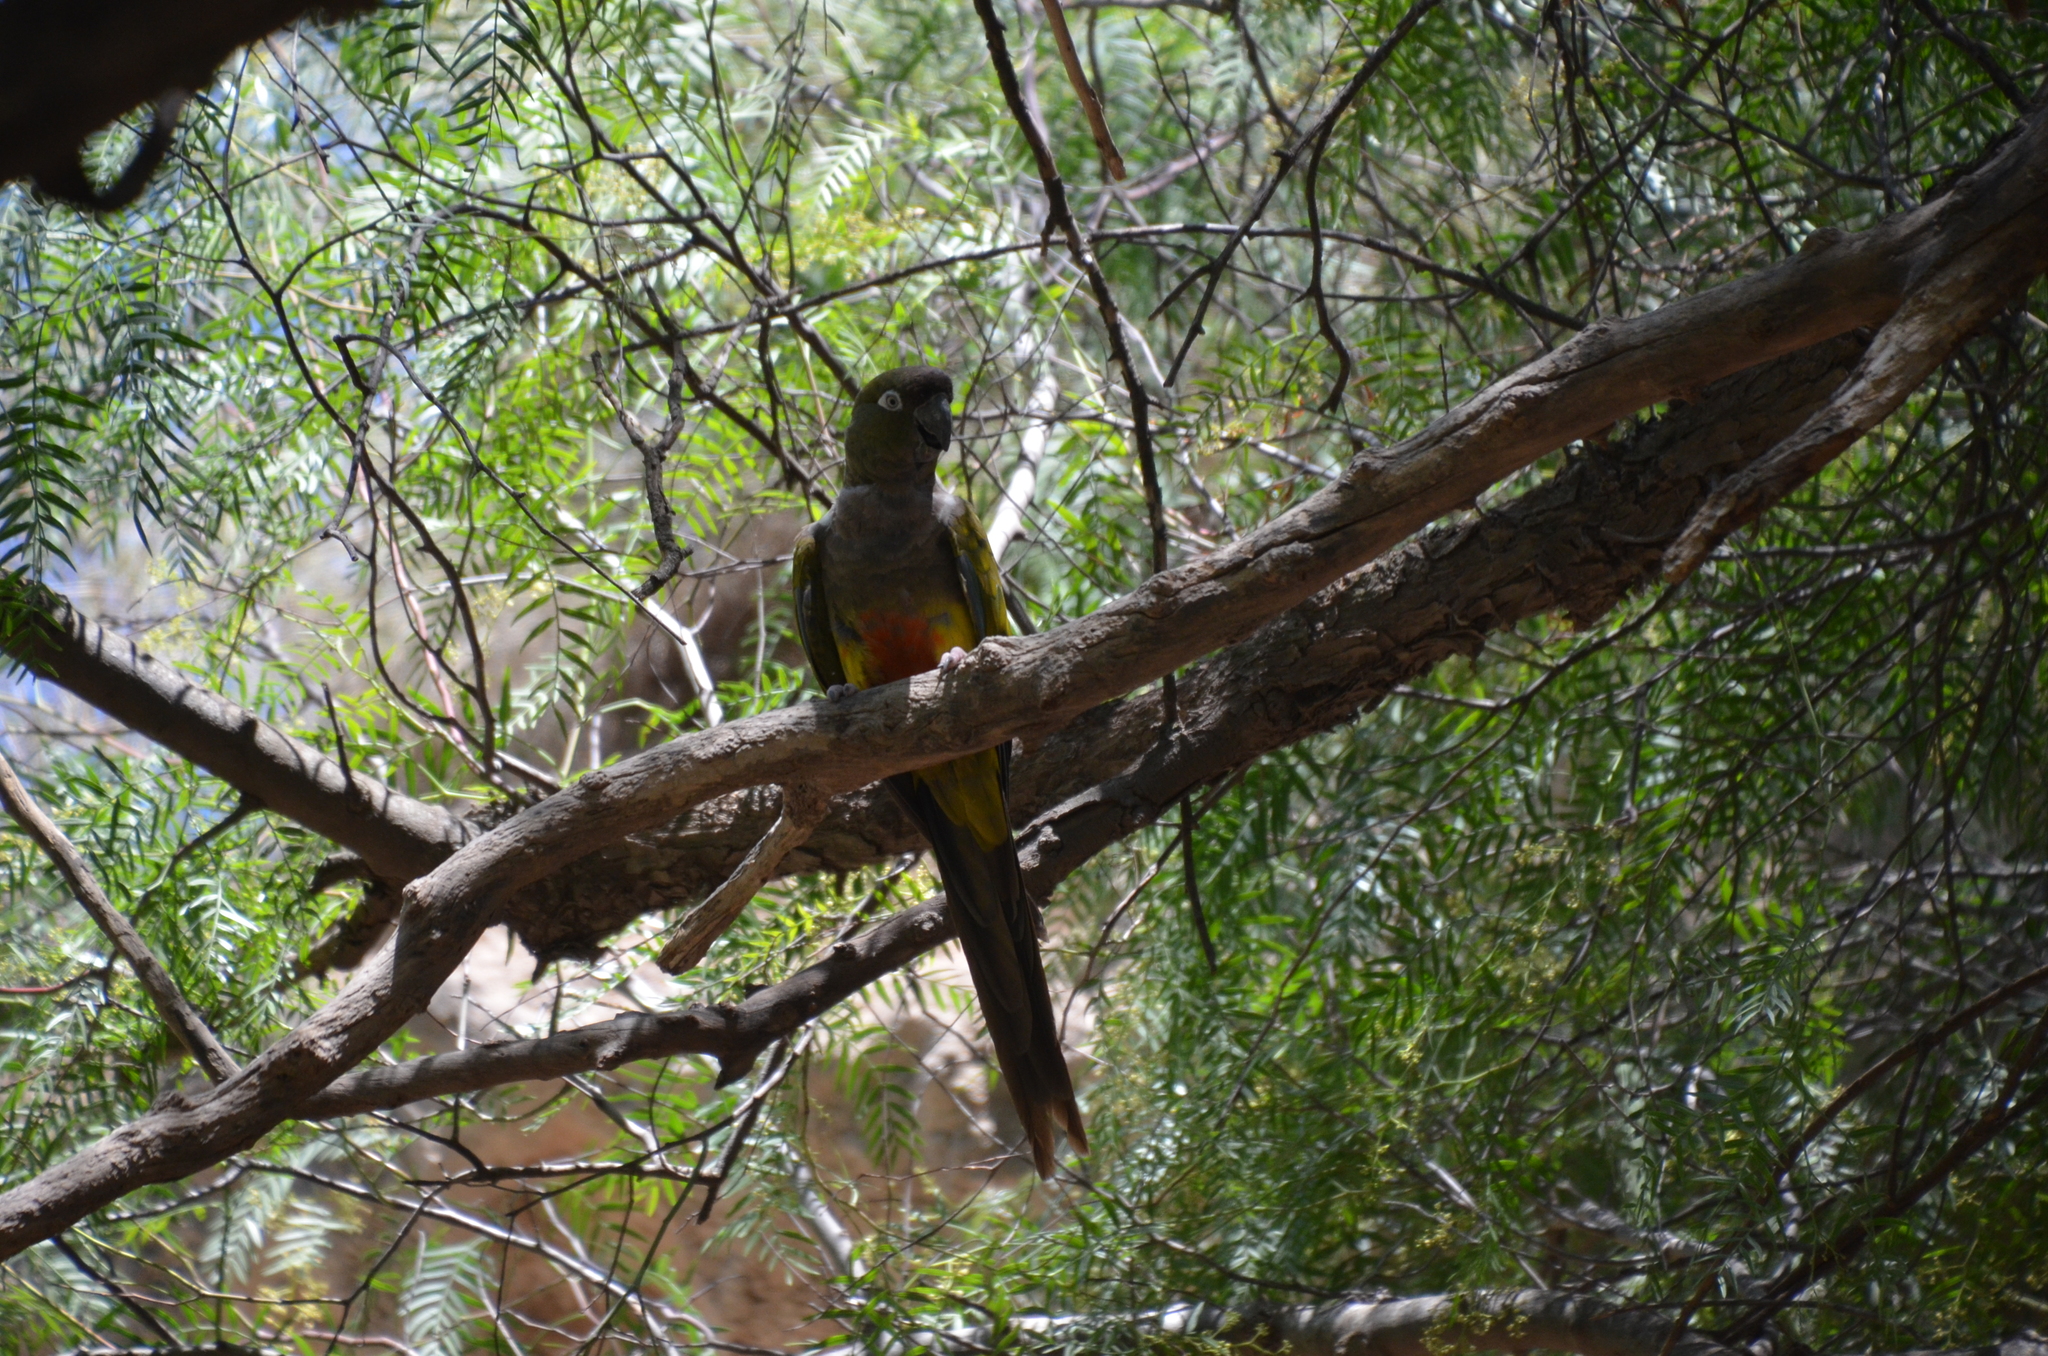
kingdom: Animalia
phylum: Chordata
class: Aves
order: Psittaciformes
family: Psittacidae
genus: Cyanoliseus
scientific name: Cyanoliseus patagonus
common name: Burrowing parrot
